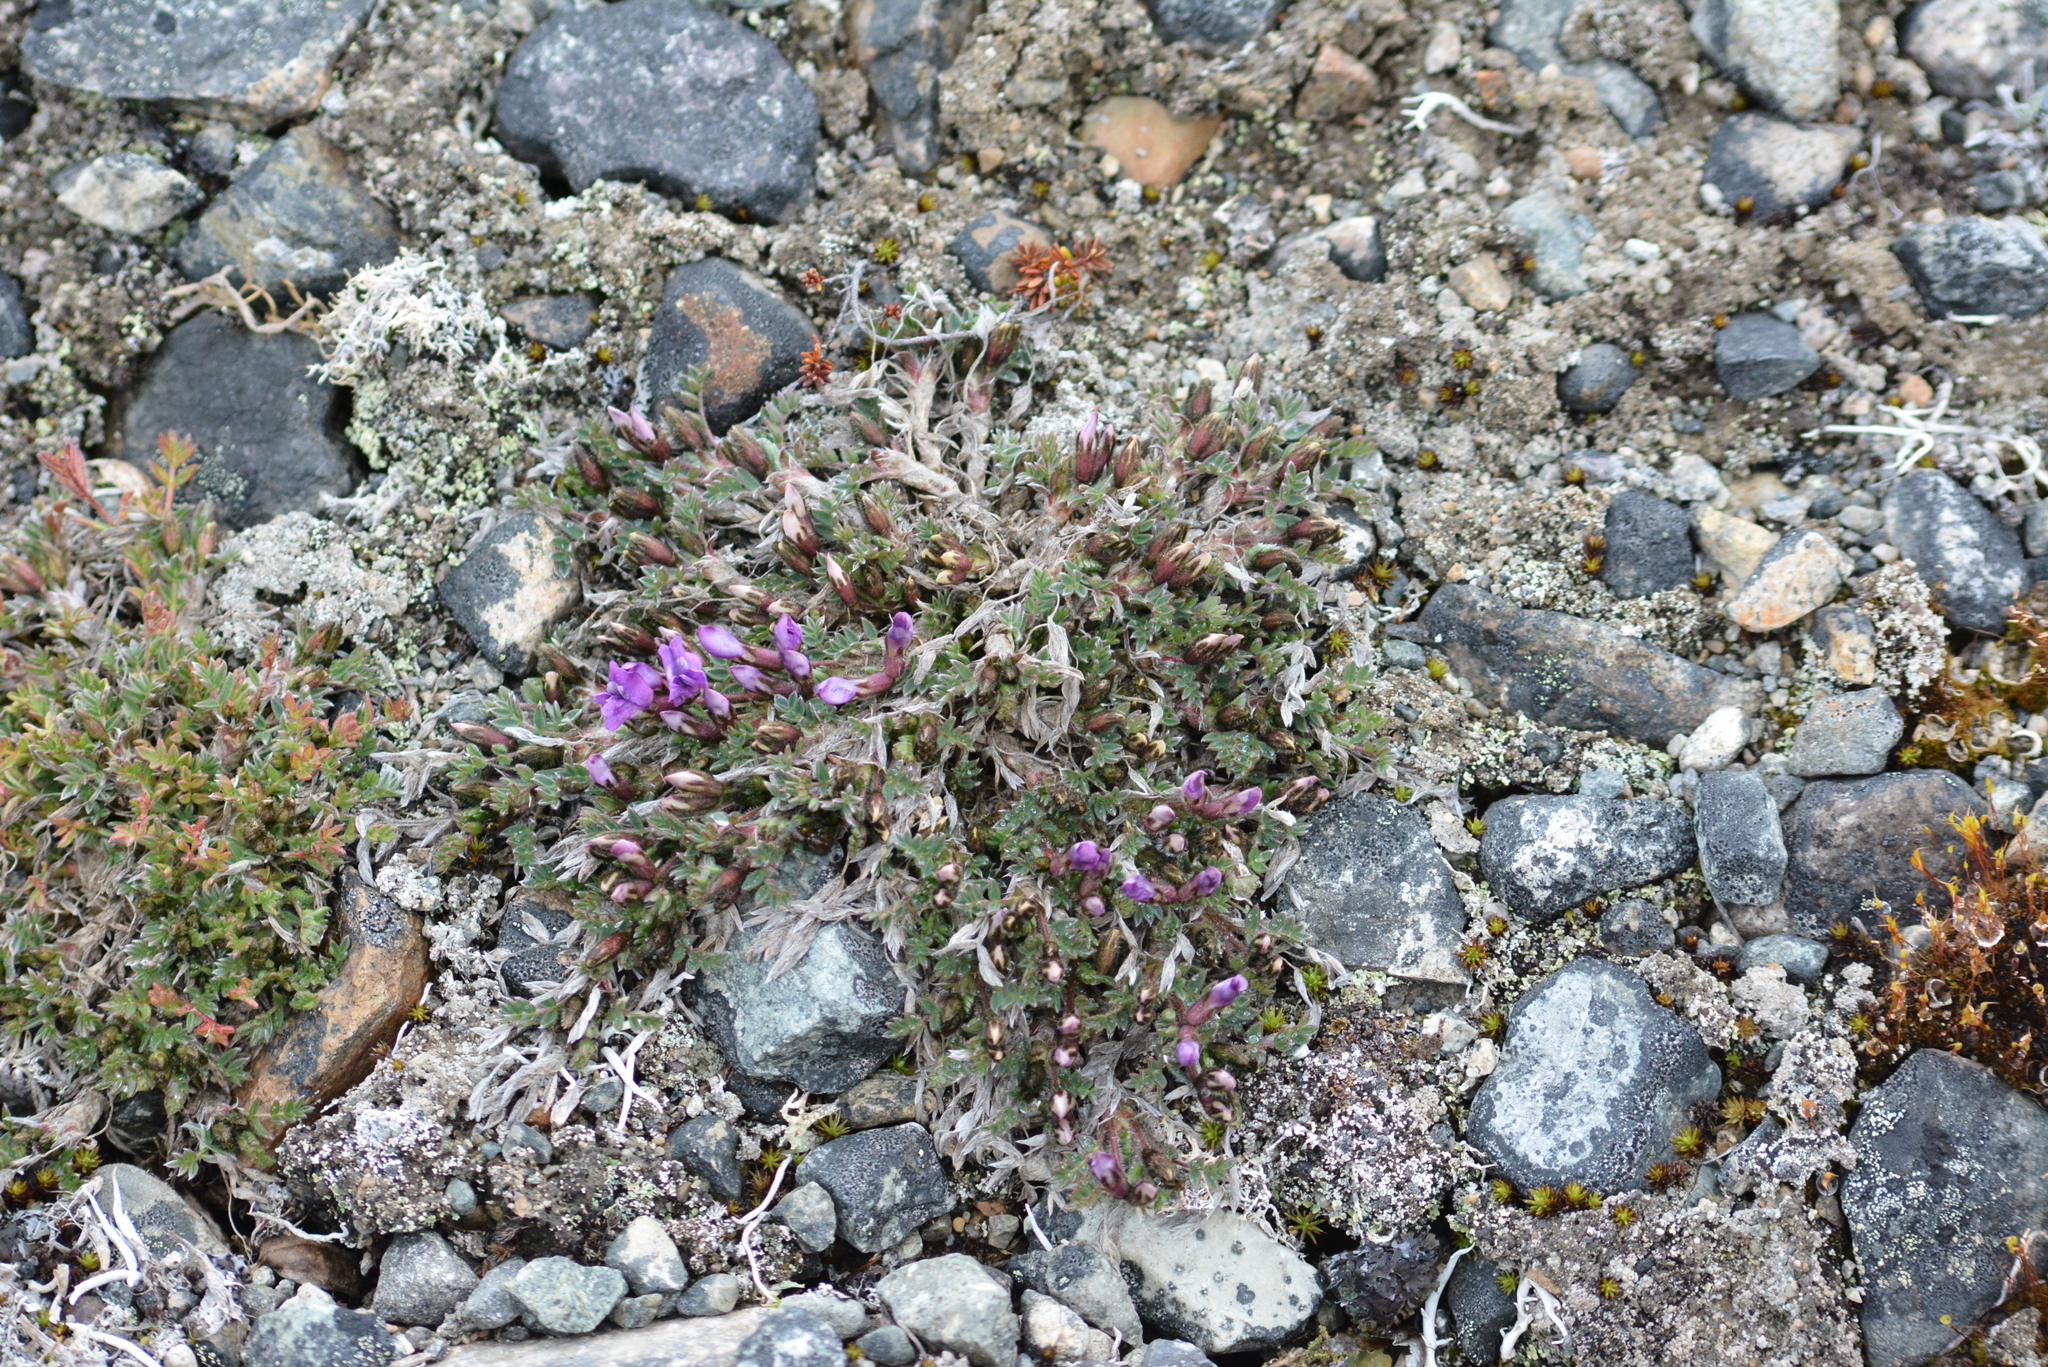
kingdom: Plantae
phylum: Tracheophyta
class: Magnoliopsida
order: Fabales
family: Fabaceae
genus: Oxytropis
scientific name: Oxytropis czukotica
